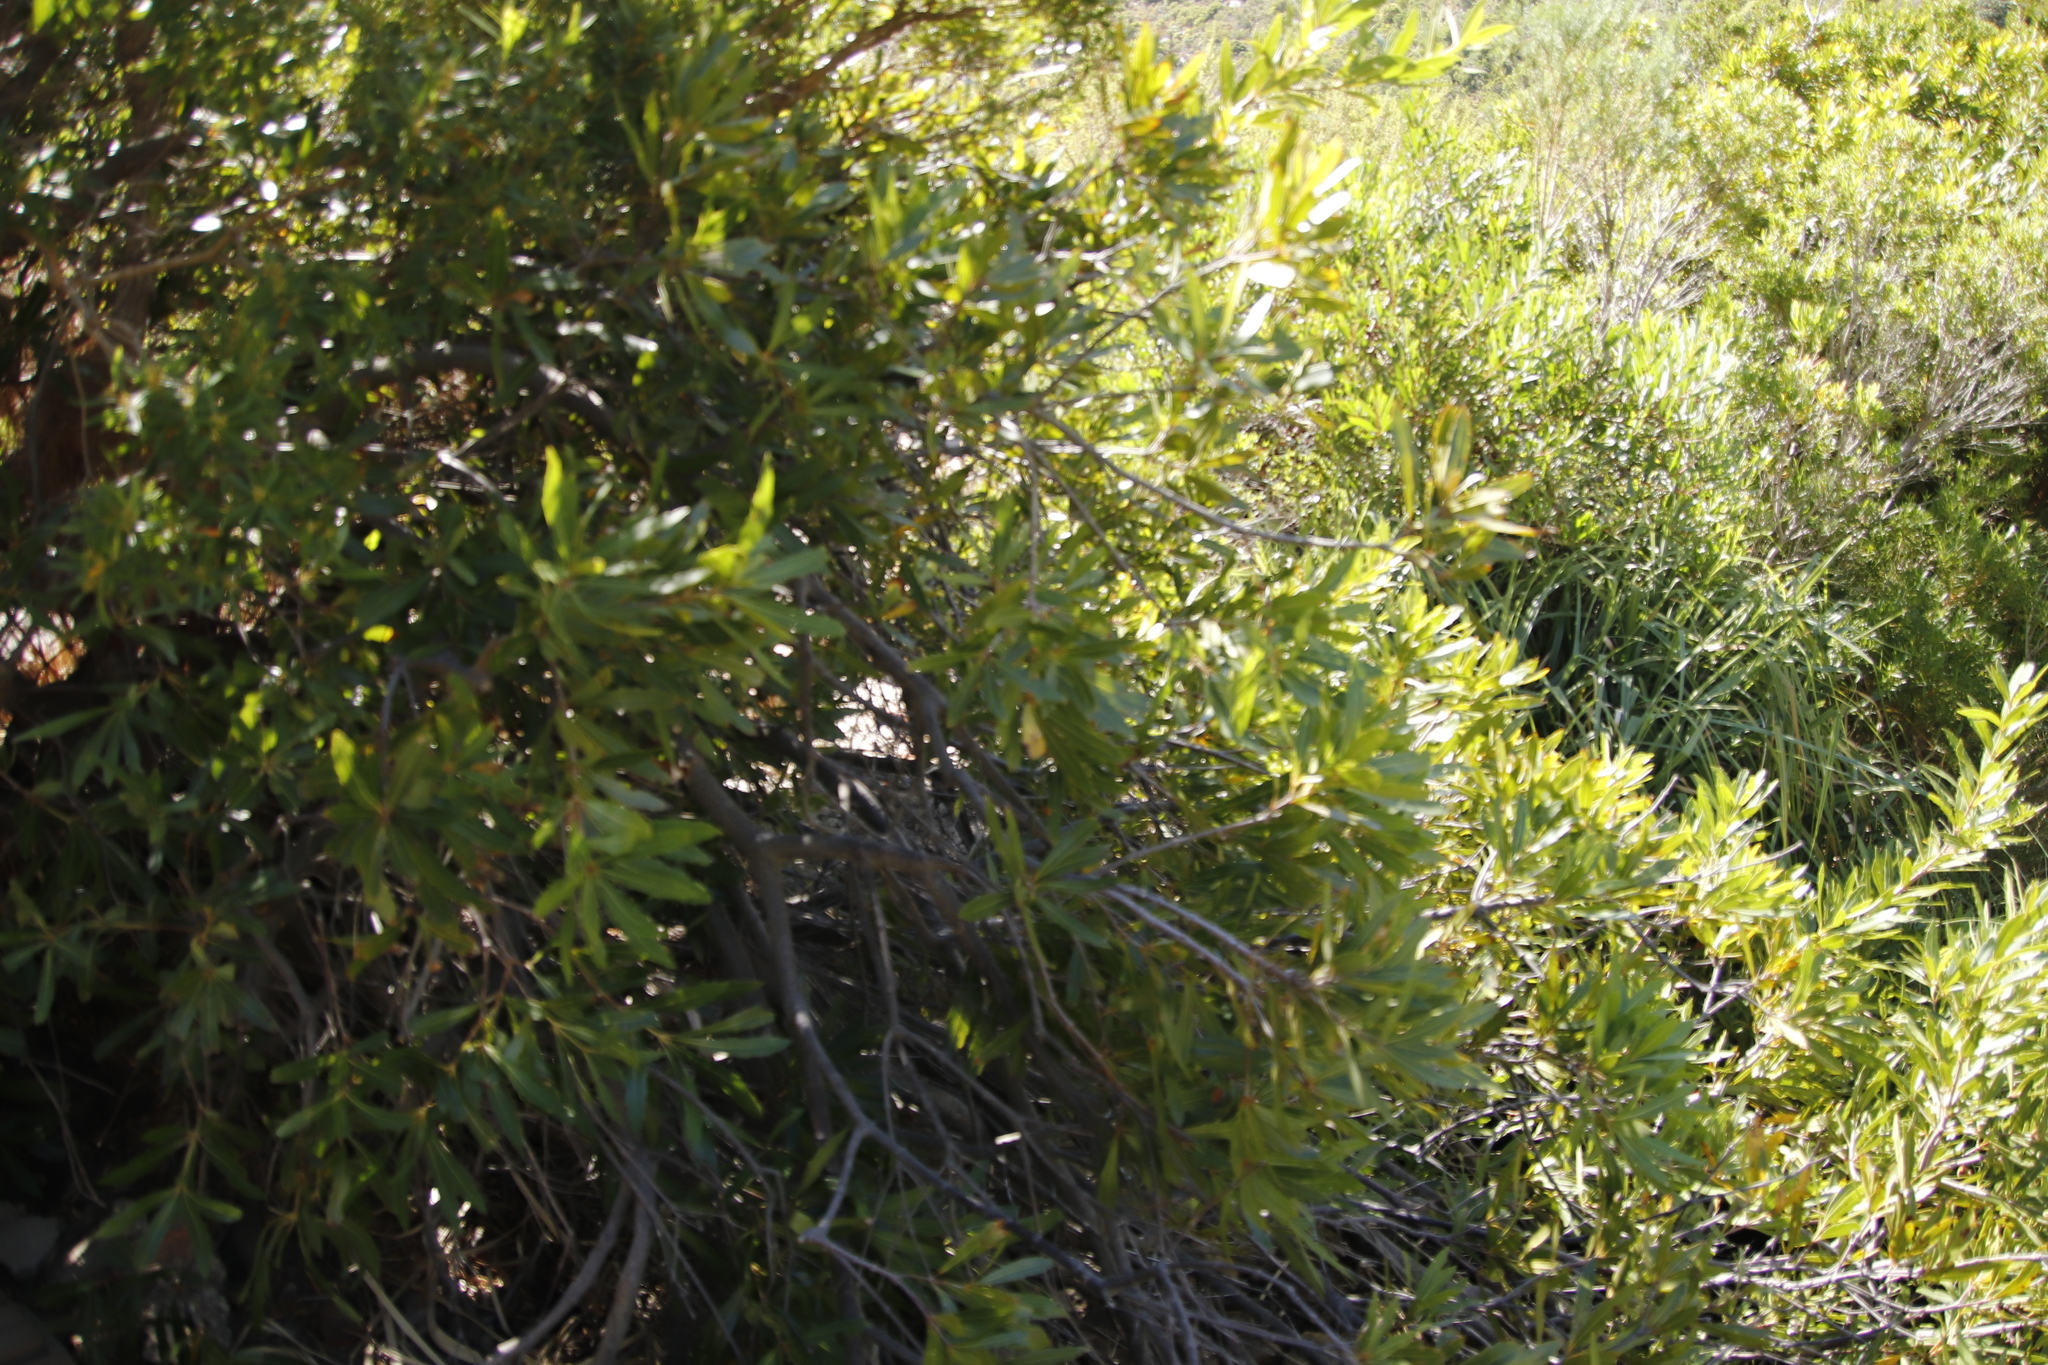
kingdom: Plantae
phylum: Tracheophyta
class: Magnoliopsida
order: Proteales
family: Proteaceae
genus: Brabejum
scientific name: Brabejum stellatifolium
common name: Wild almond
